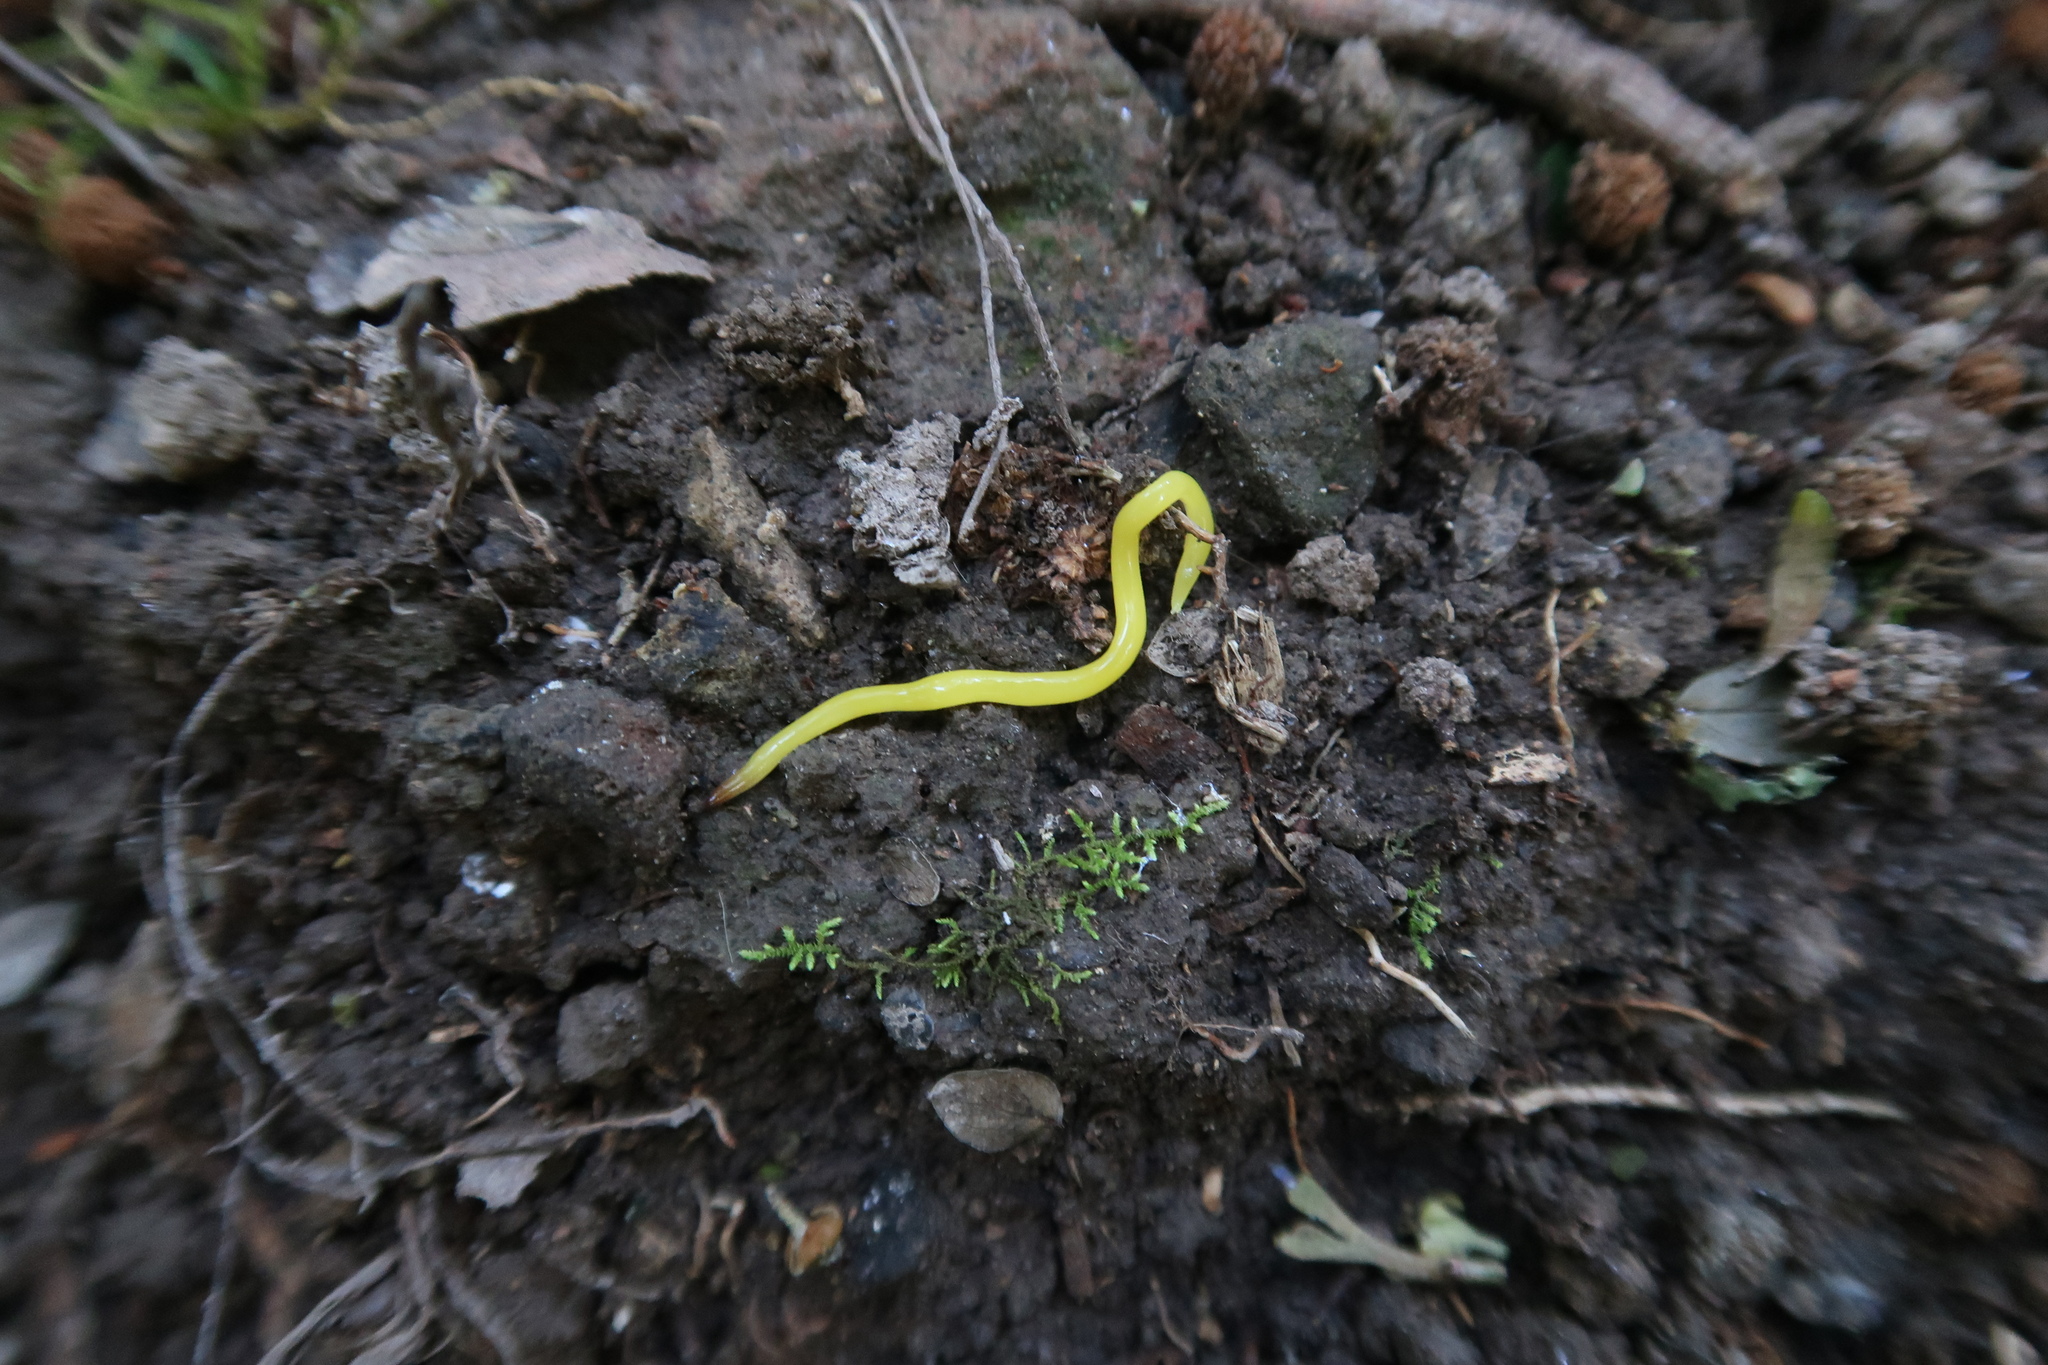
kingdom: Animalia
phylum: Platyhelminthes
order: Tricladida
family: Geoplanidae
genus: Fletchamia
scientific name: Fletchamia sugdeni
